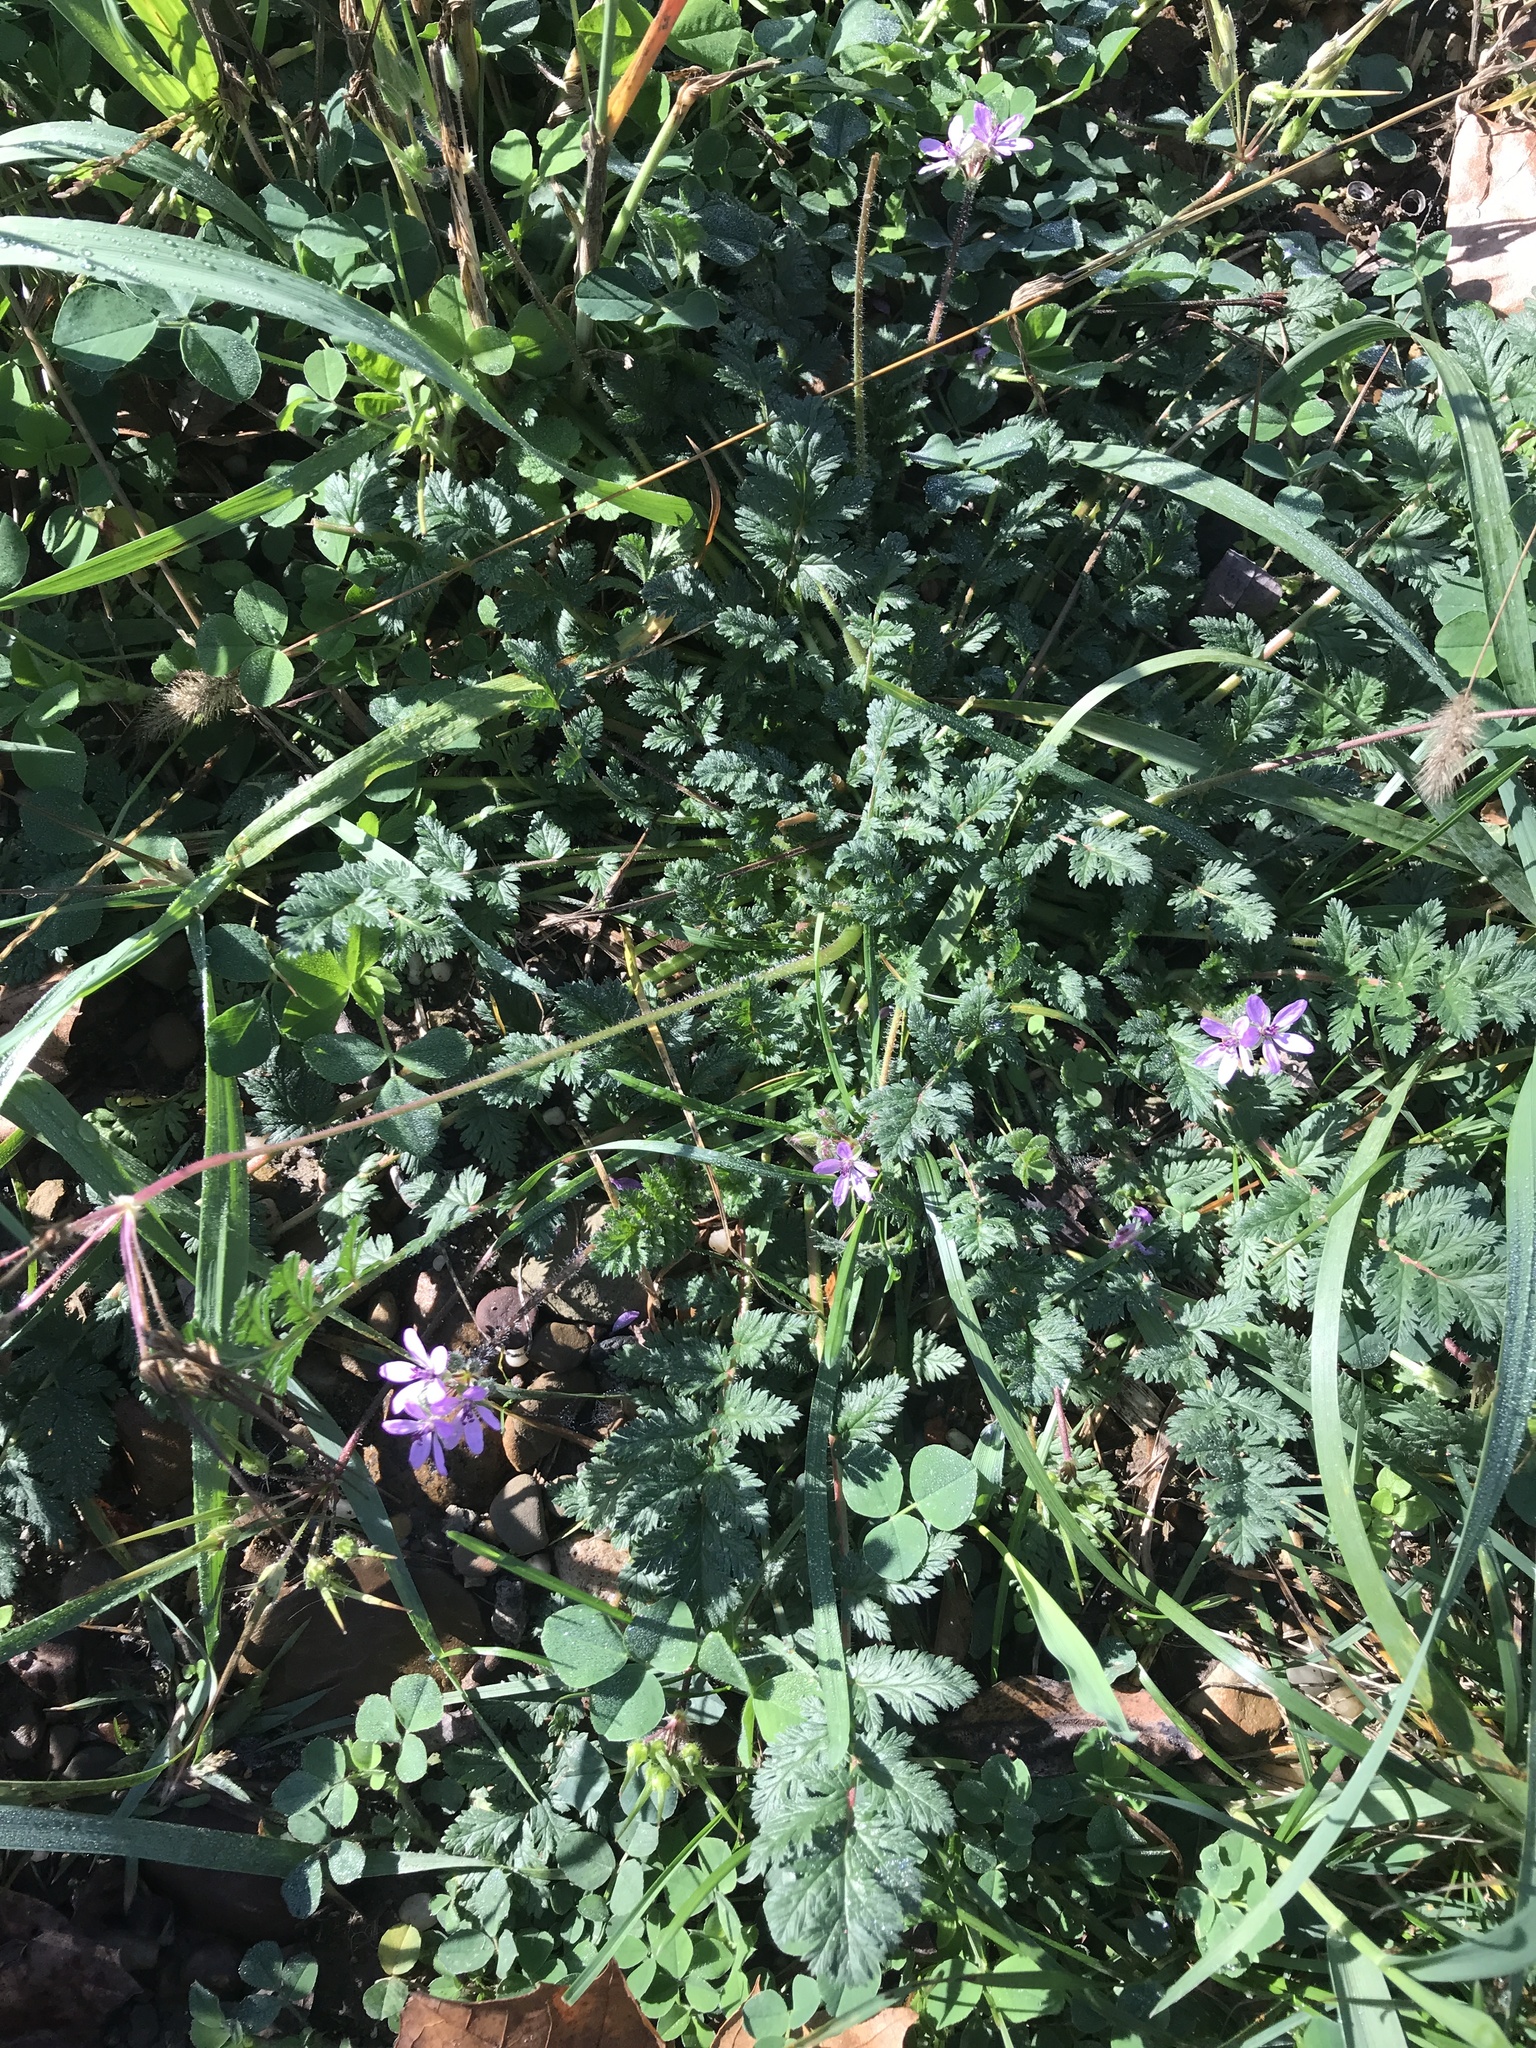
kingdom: Plantae
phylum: Tracheophyta
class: Magnoliopsida
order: Geraniales
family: Geraniaceae
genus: Erodium
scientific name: Erodium cicutarium
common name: Common stork's-bill
